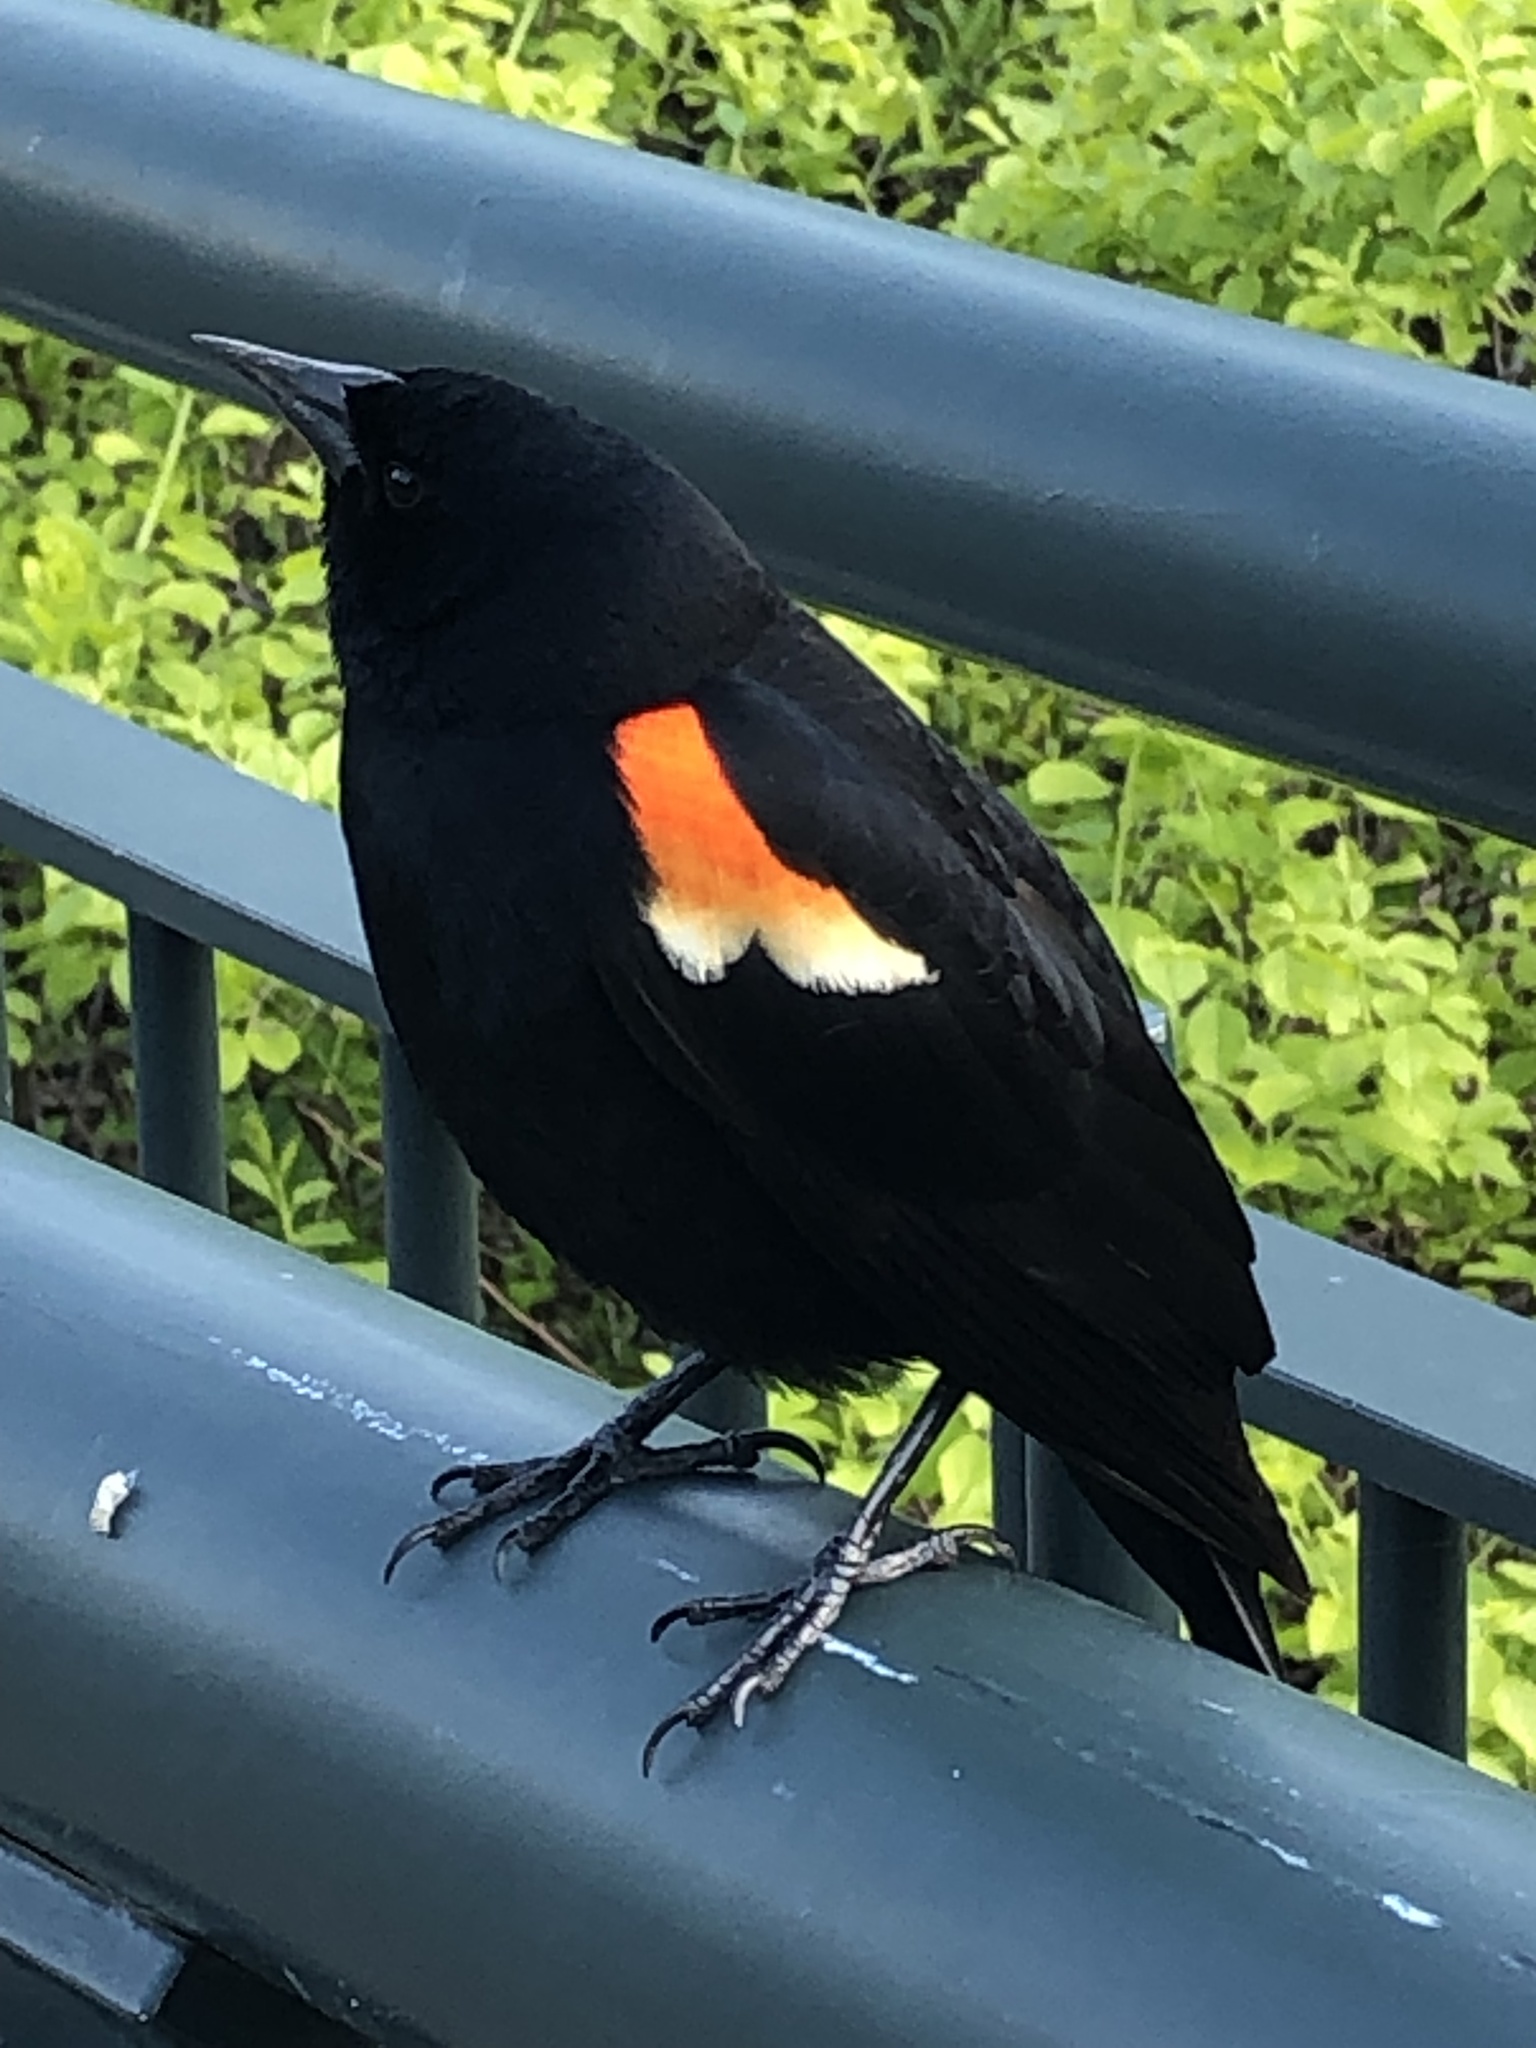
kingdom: Animalia
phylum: Chordata
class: Aves
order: Passeriformes
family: Icteridae
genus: Agelaius
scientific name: Agelaius phoeniceus
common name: Red-winged blackbird
